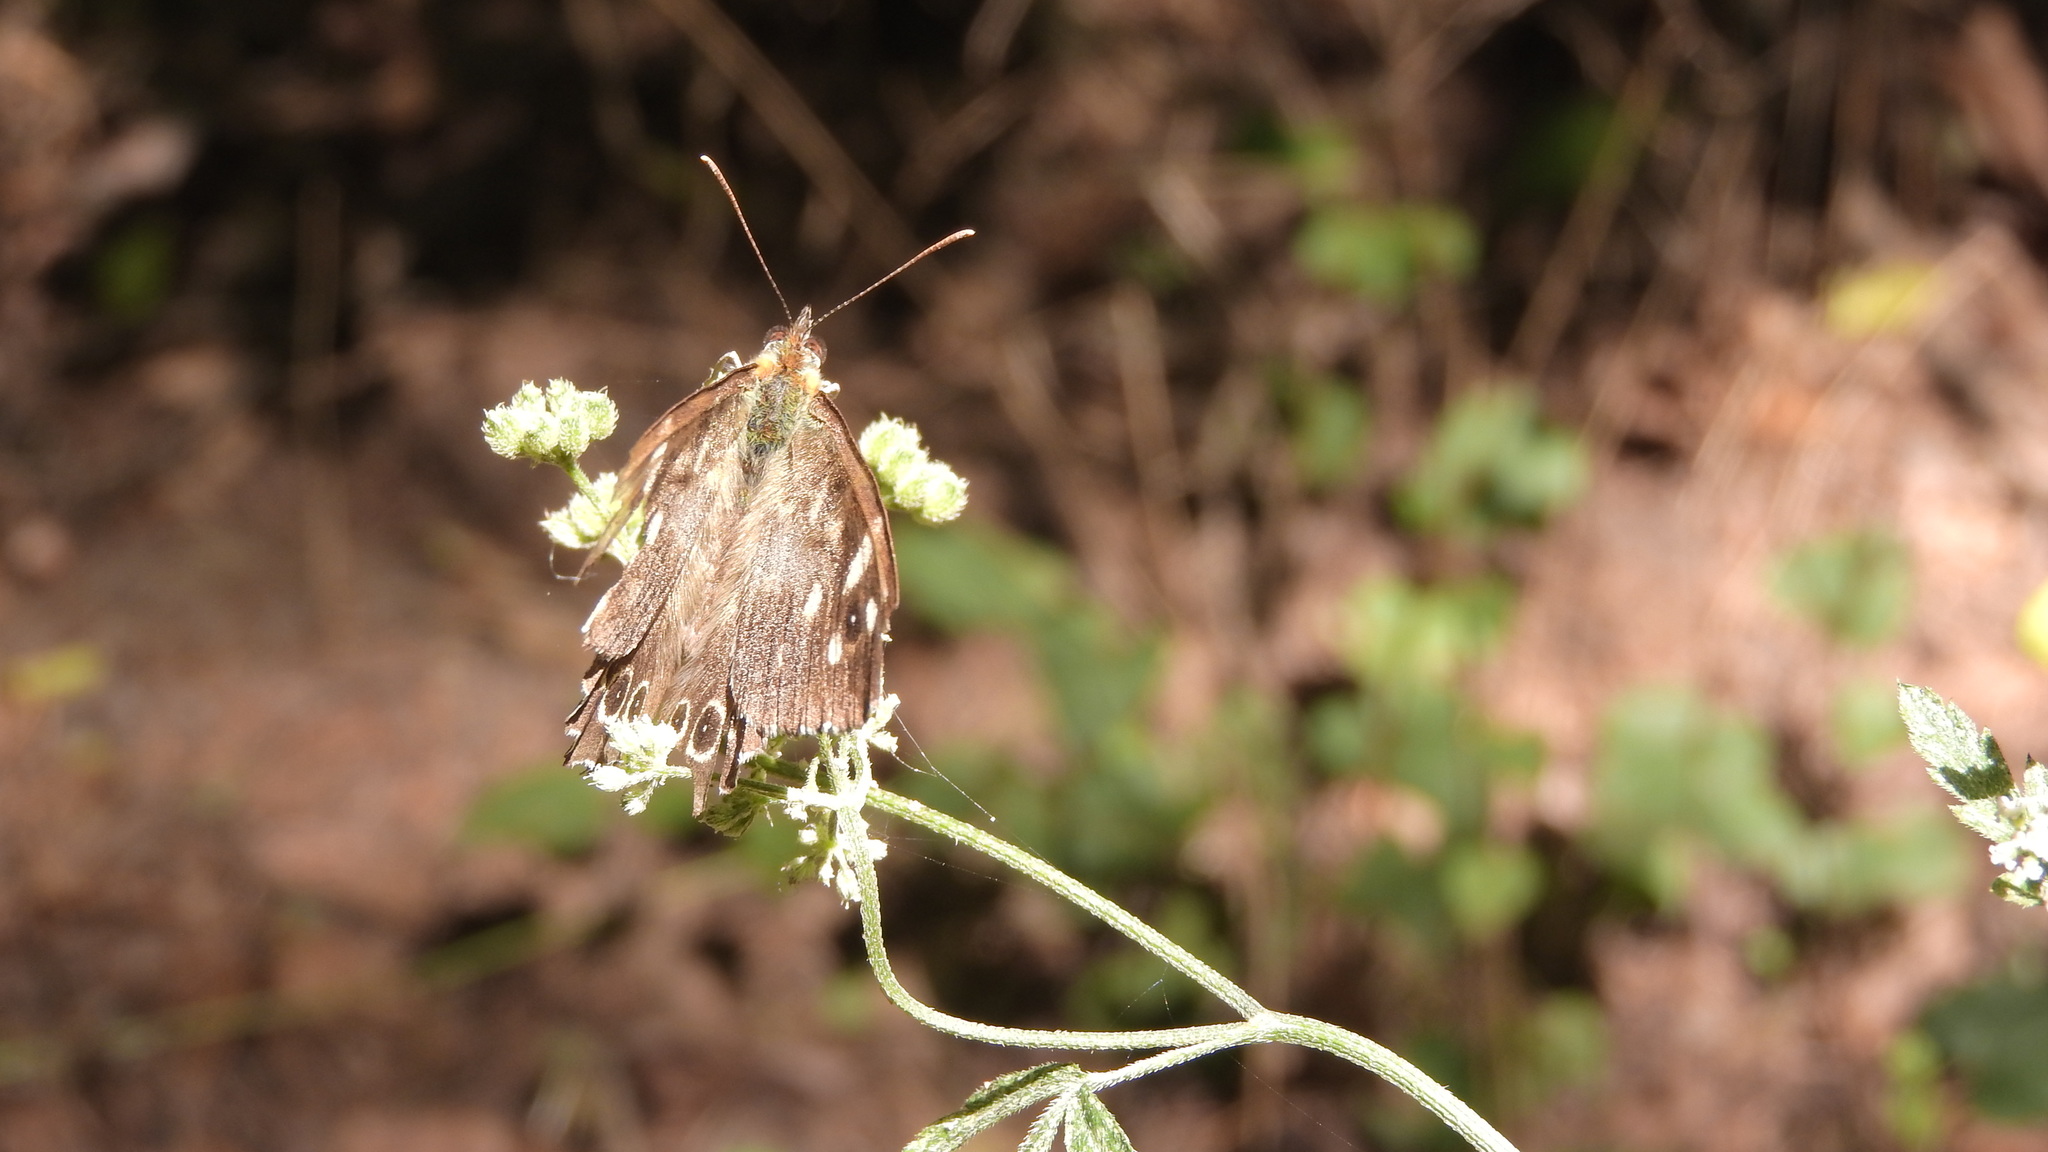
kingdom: Animalia
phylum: Arthropoda
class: Insecta
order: Lepidoptera
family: Nymphalidae
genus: Pararge
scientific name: Pararge aegeria
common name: Speckled wood
